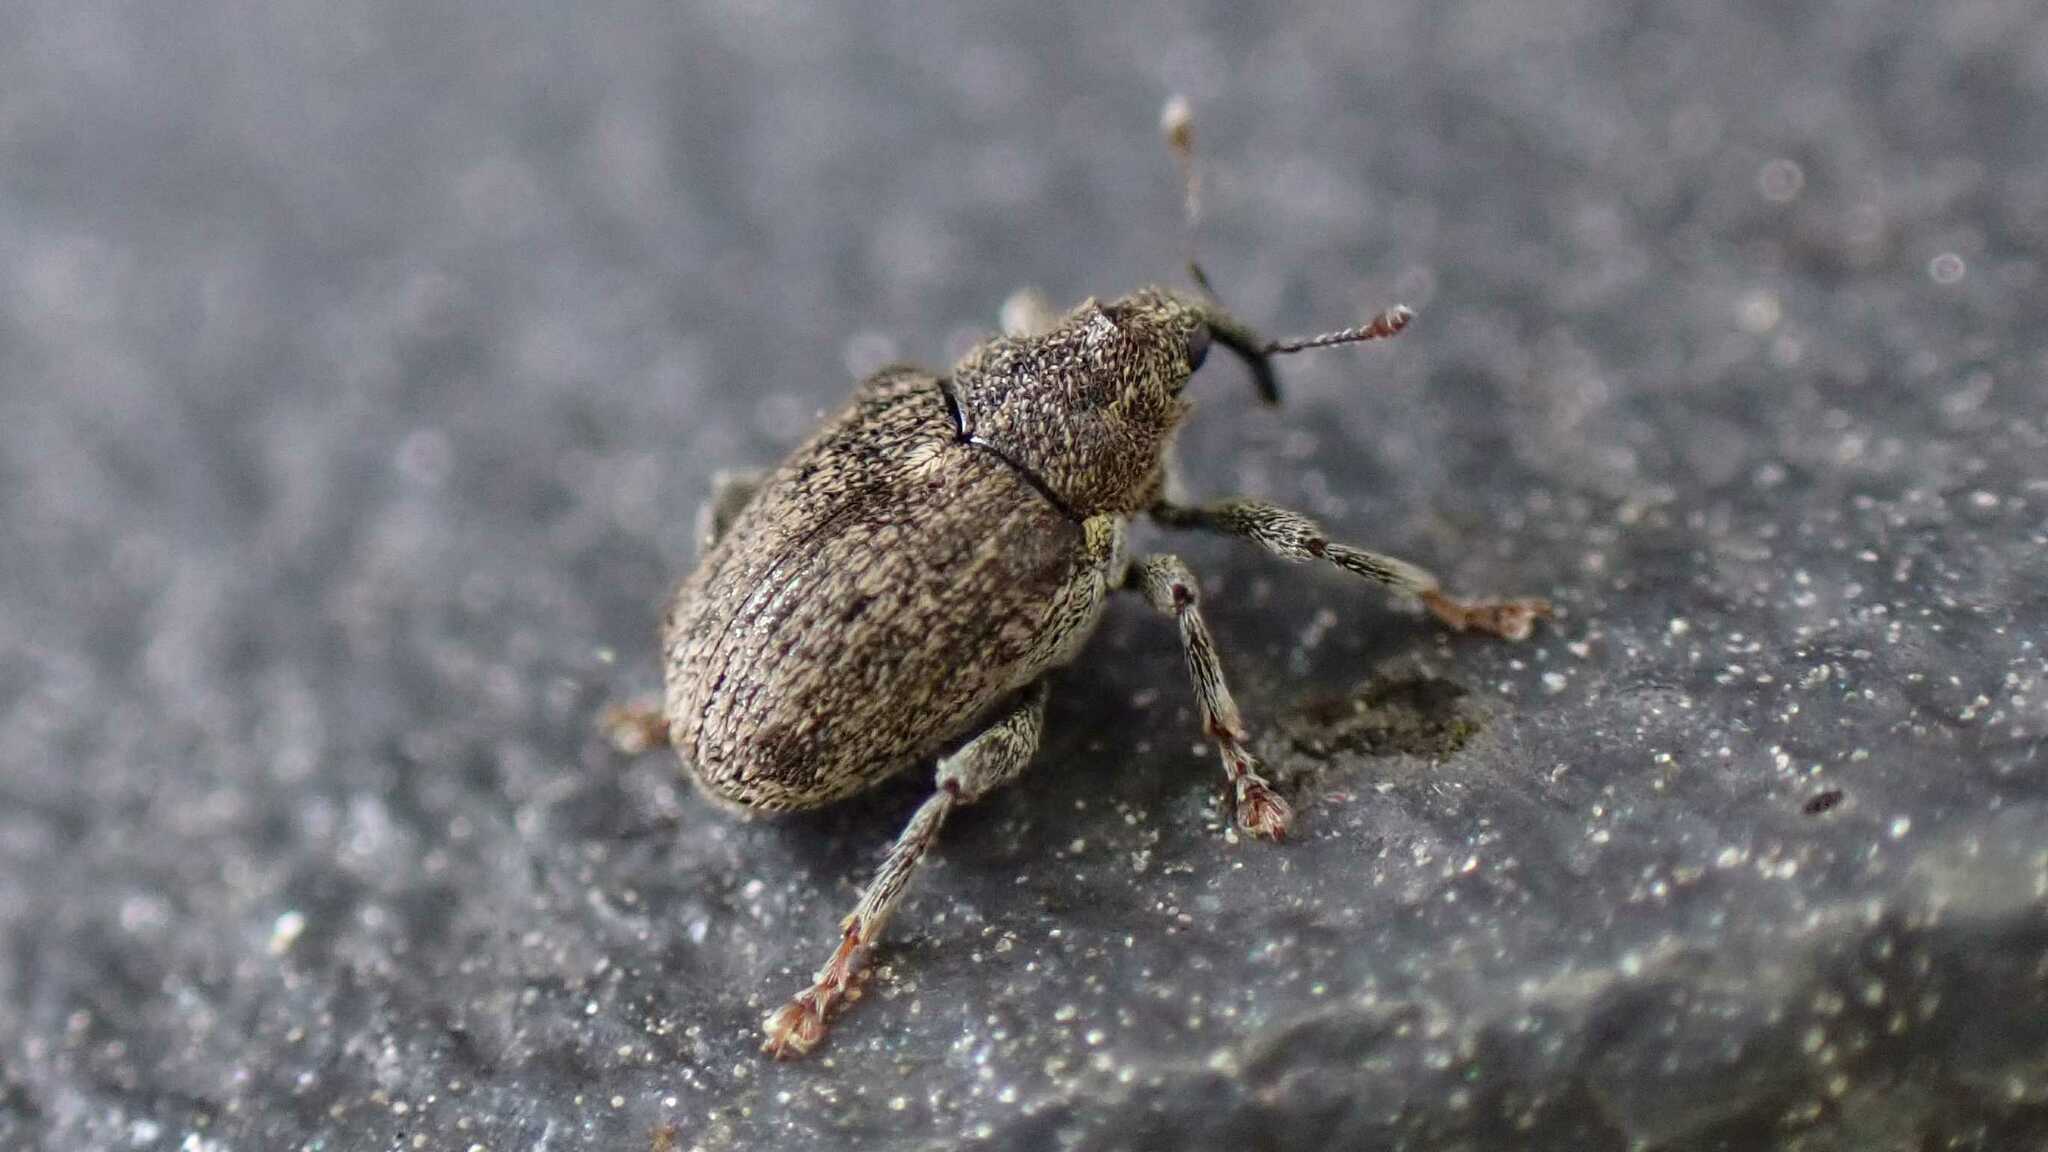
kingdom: Animalia
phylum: Arthropoda
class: Insecta
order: Coleoptera
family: Curculionidae
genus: Ceutorhynchus
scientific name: Ceutorhynchus pallidactylus
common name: Cabbage stem weavil
